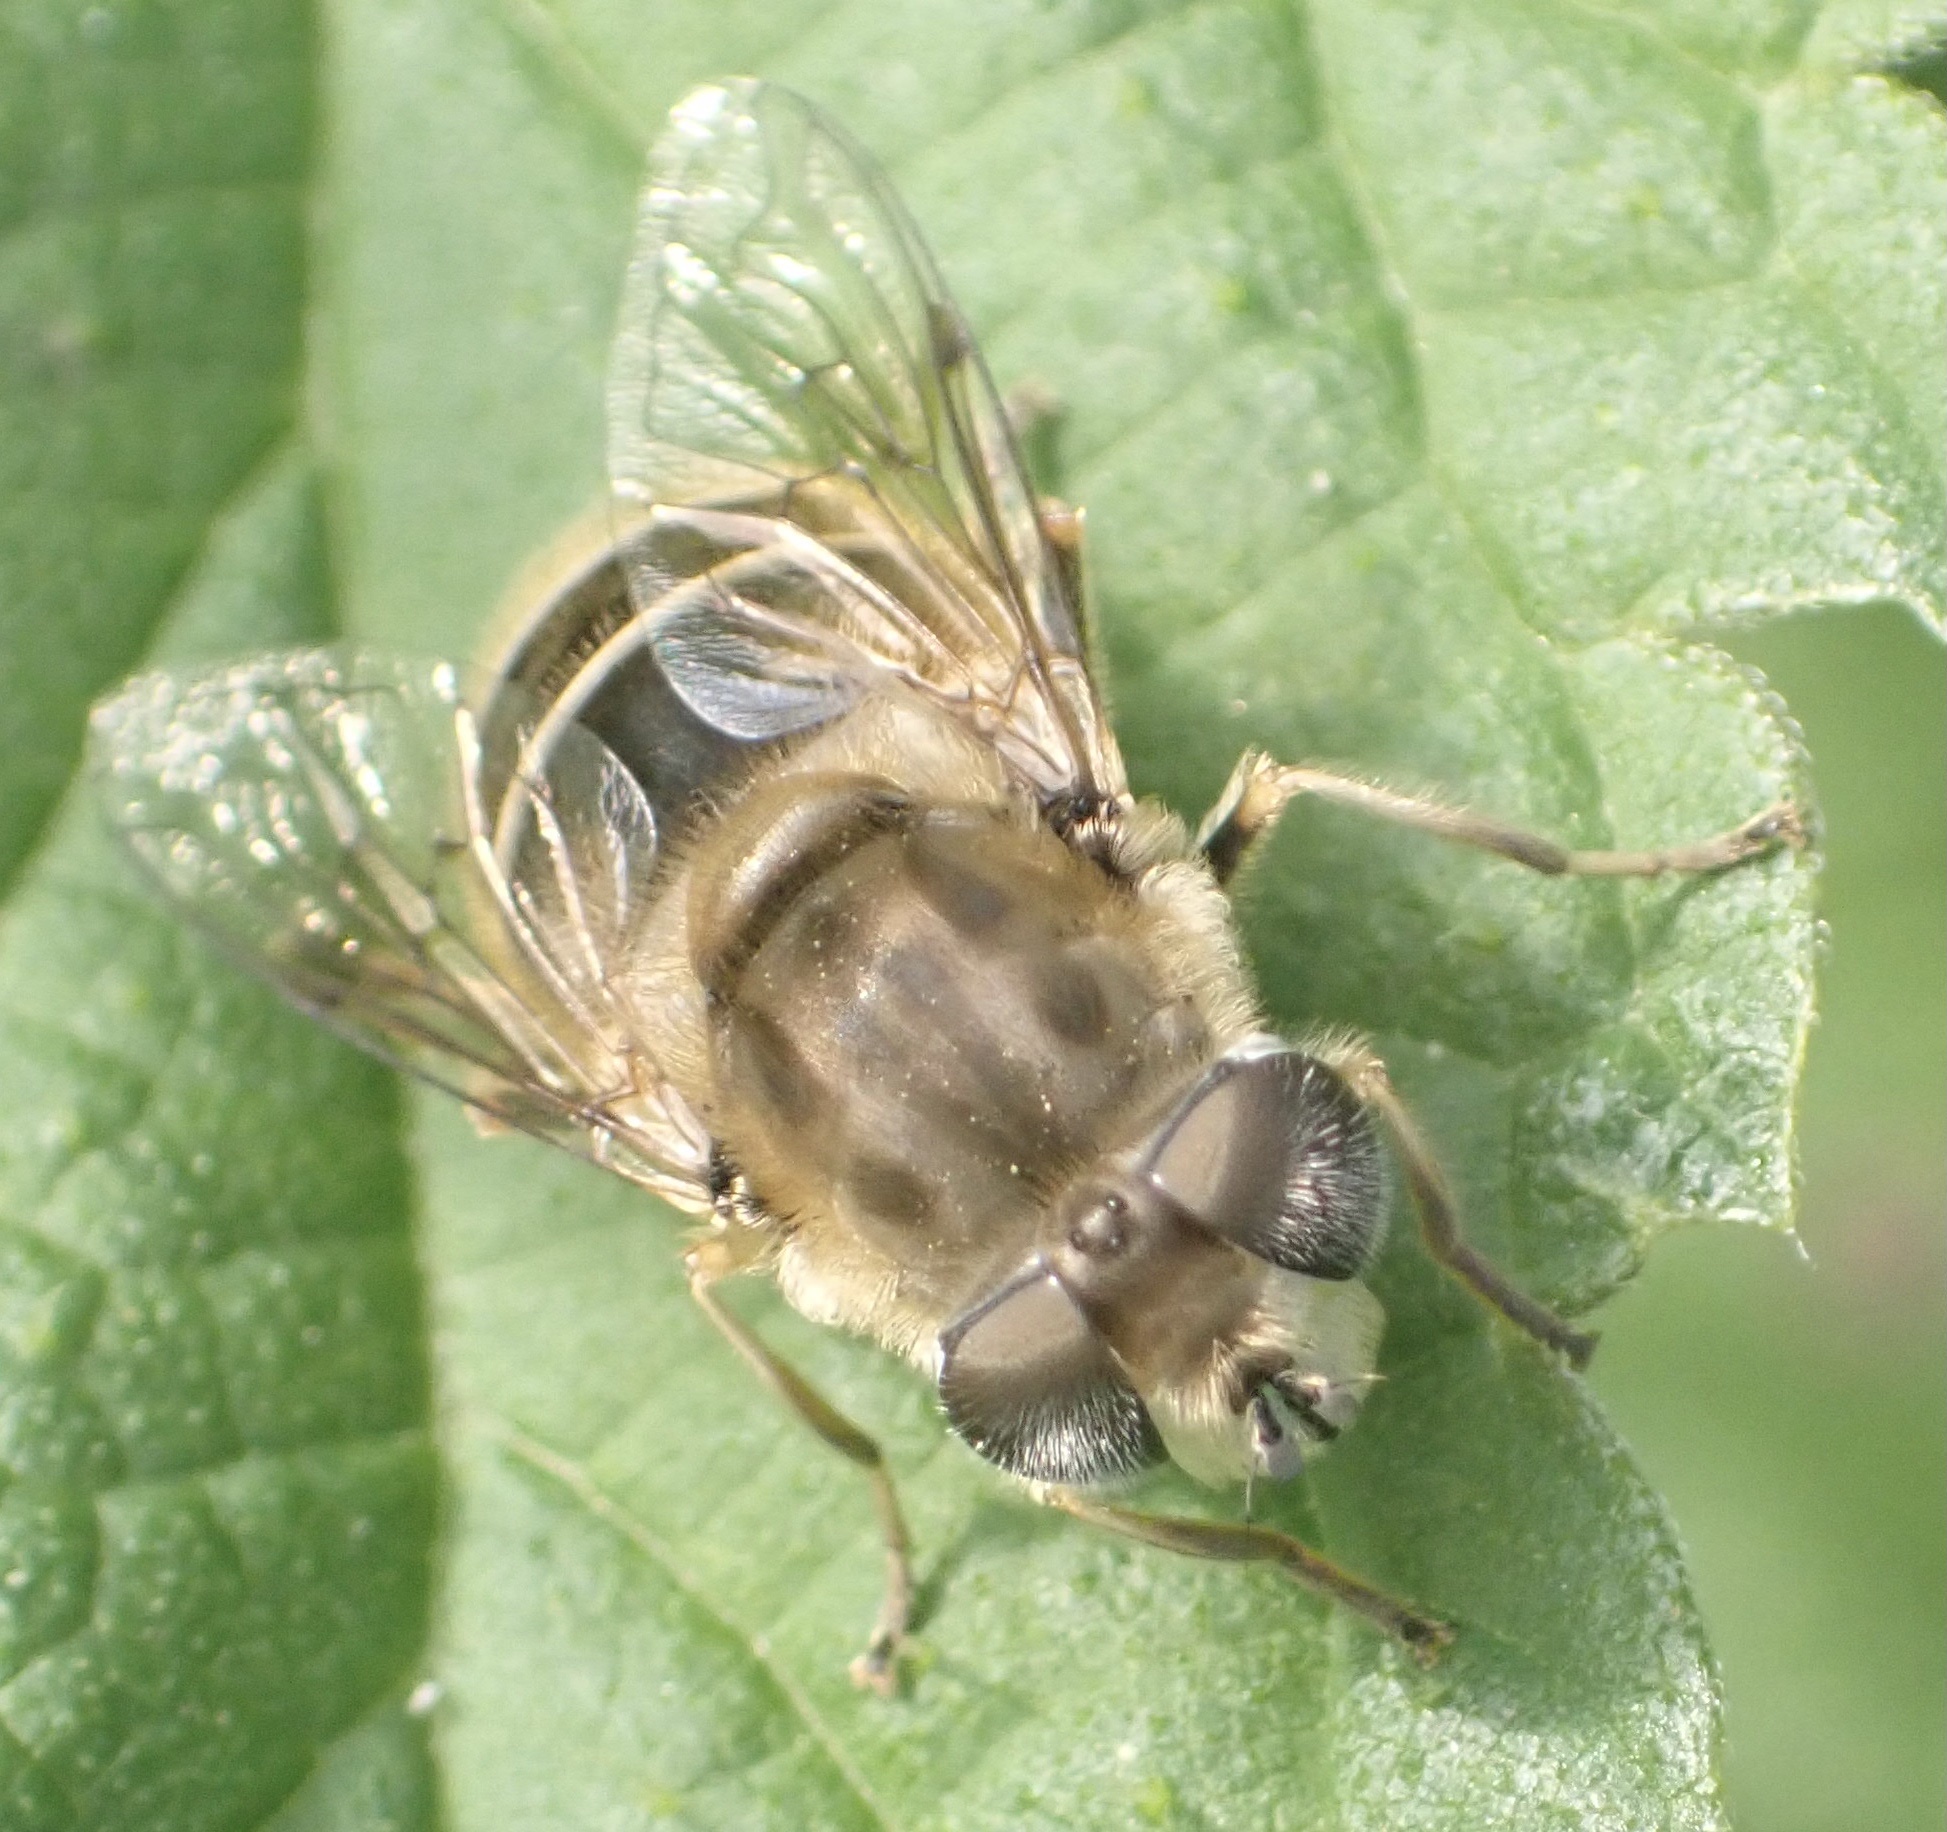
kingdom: Animalia
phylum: Arthropoda
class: Insecta
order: Diptera
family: Syrphidae
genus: Eristalis
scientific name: Eristalis abusivus
